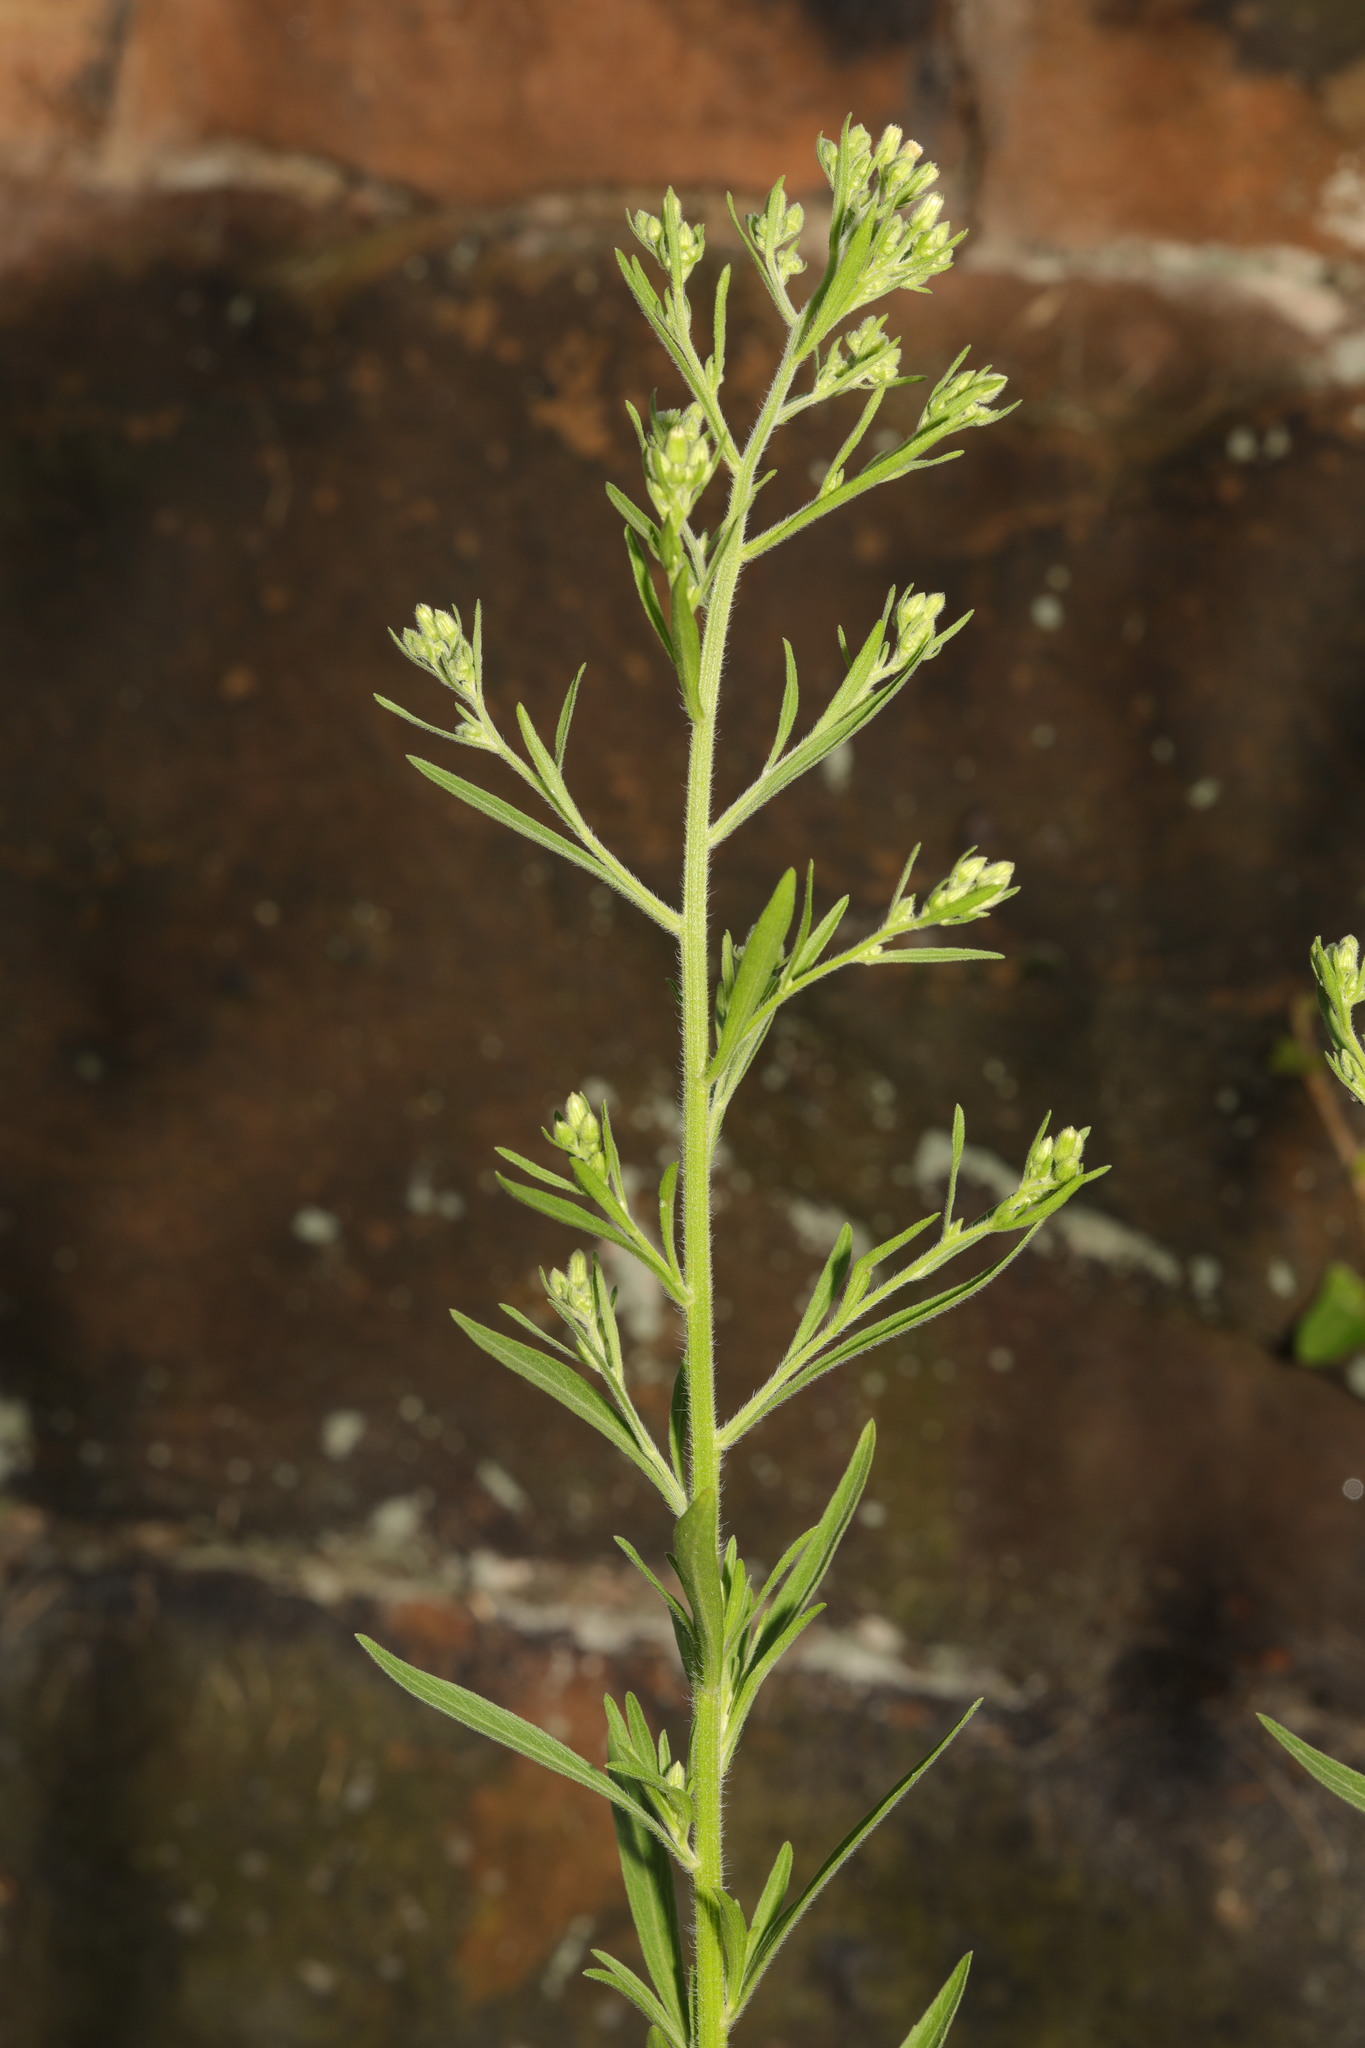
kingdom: Plantae
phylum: Tracheophyta
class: Magnoliopsida
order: Asterales
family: Asteraceae
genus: Erigeron
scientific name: Erigeron sumatrensis
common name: Daisy
